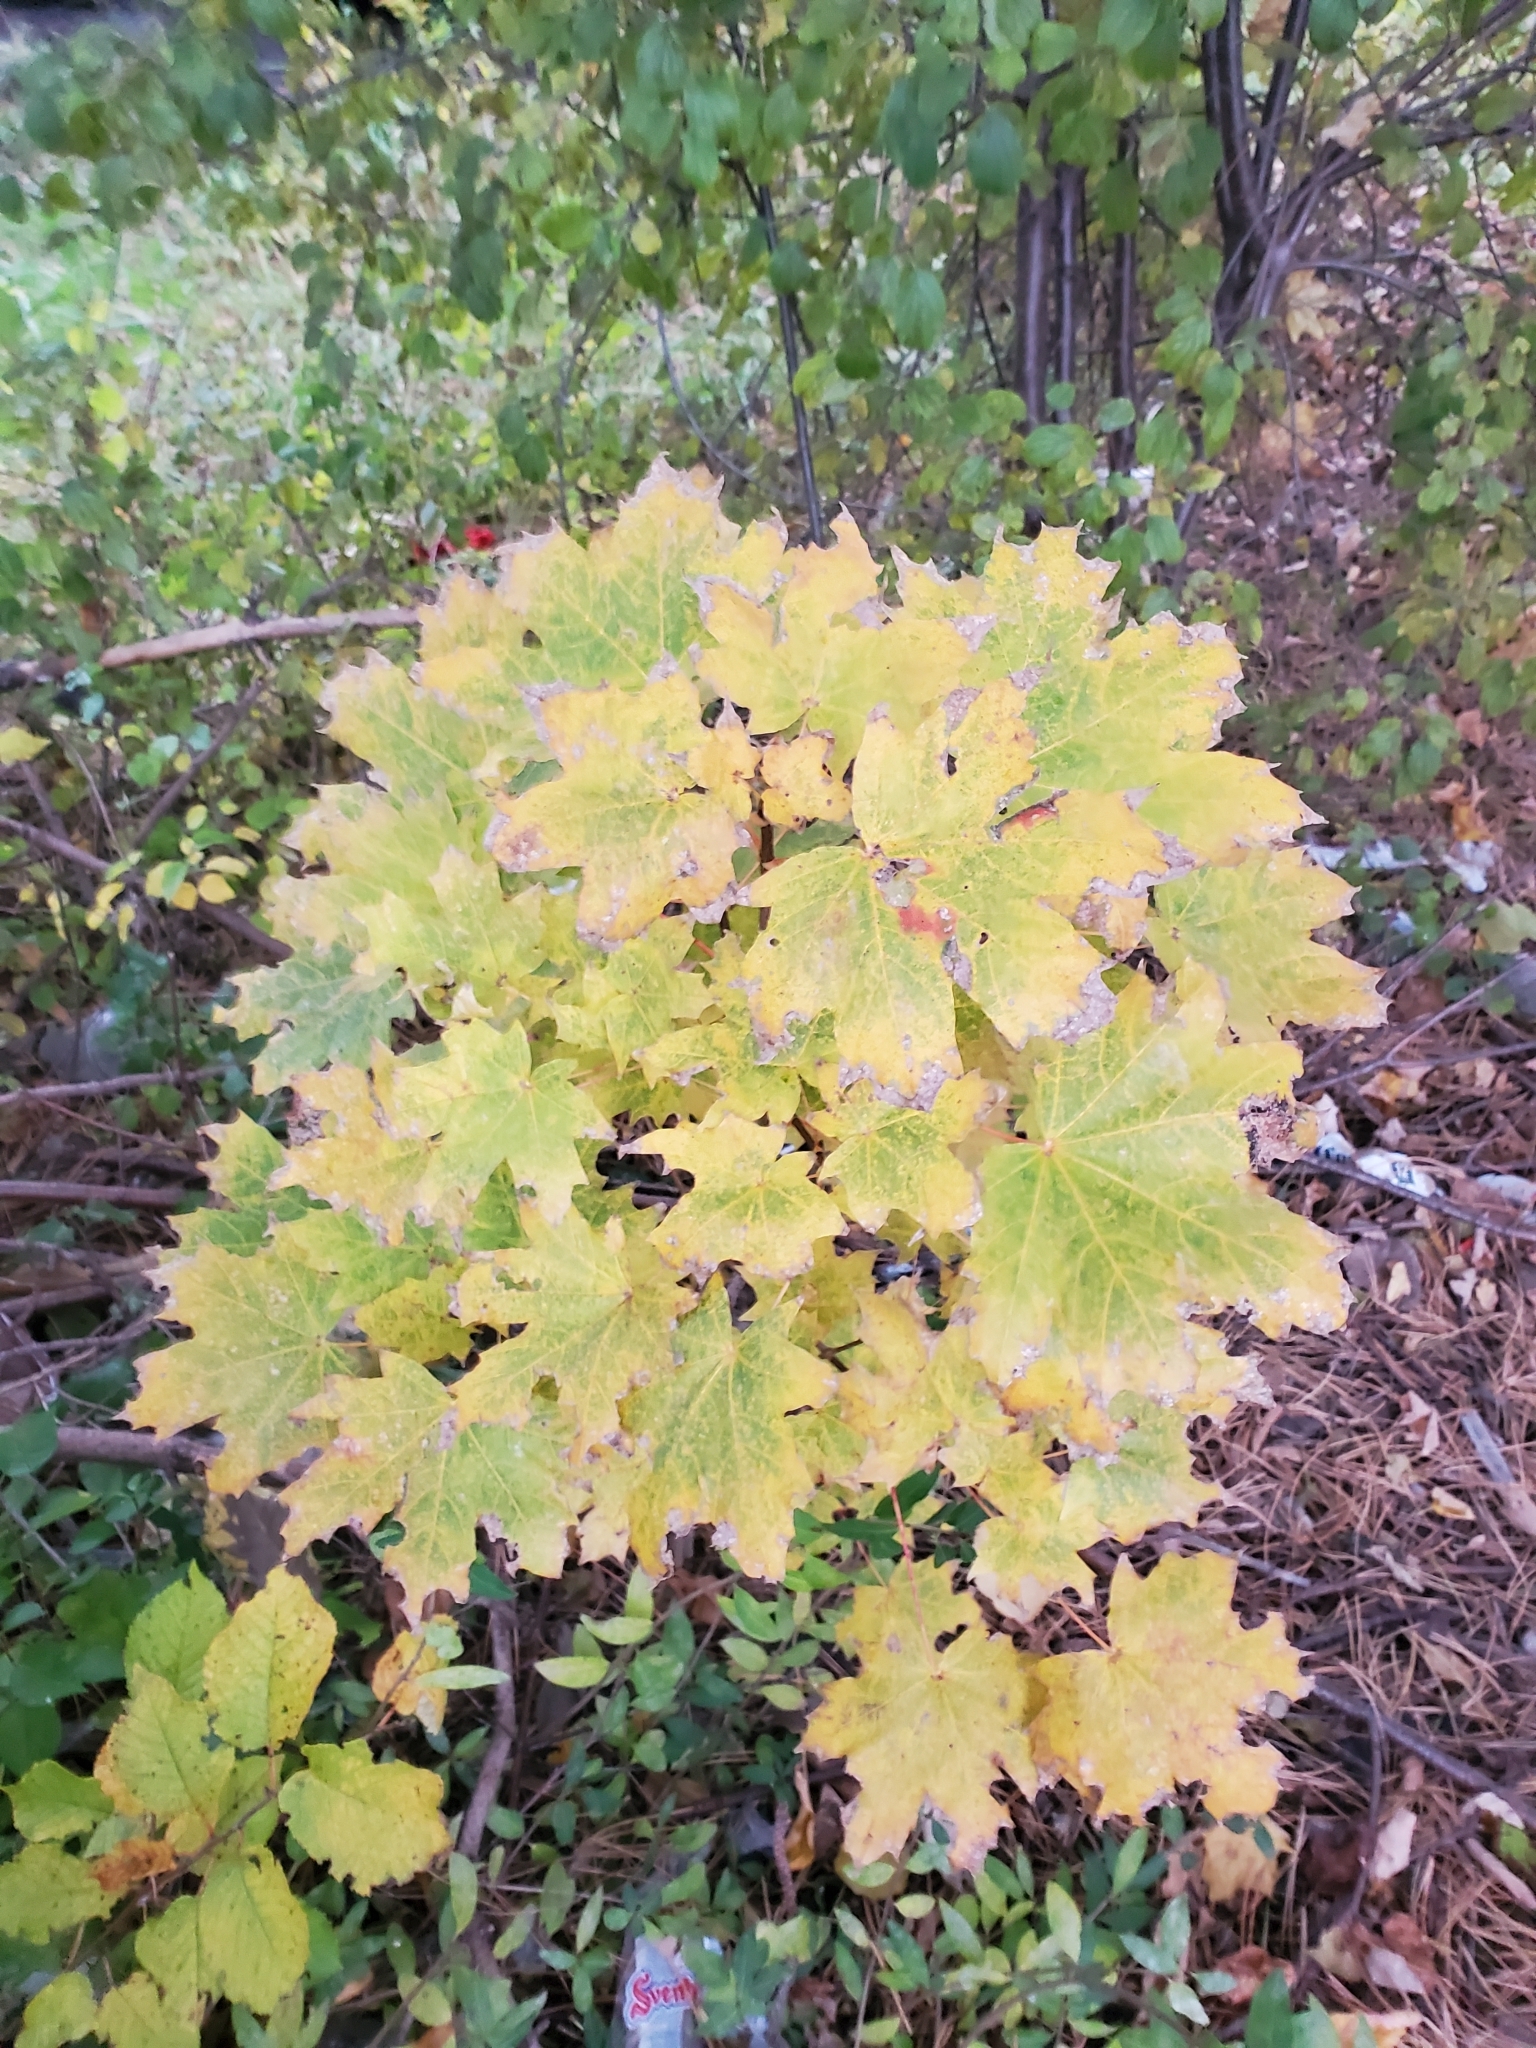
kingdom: Plantae
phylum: Tracheophyta
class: Magnoliopsida
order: Sapindales
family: Sapindaceae
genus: Acer
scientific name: Acer platanoides
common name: Norway maple
